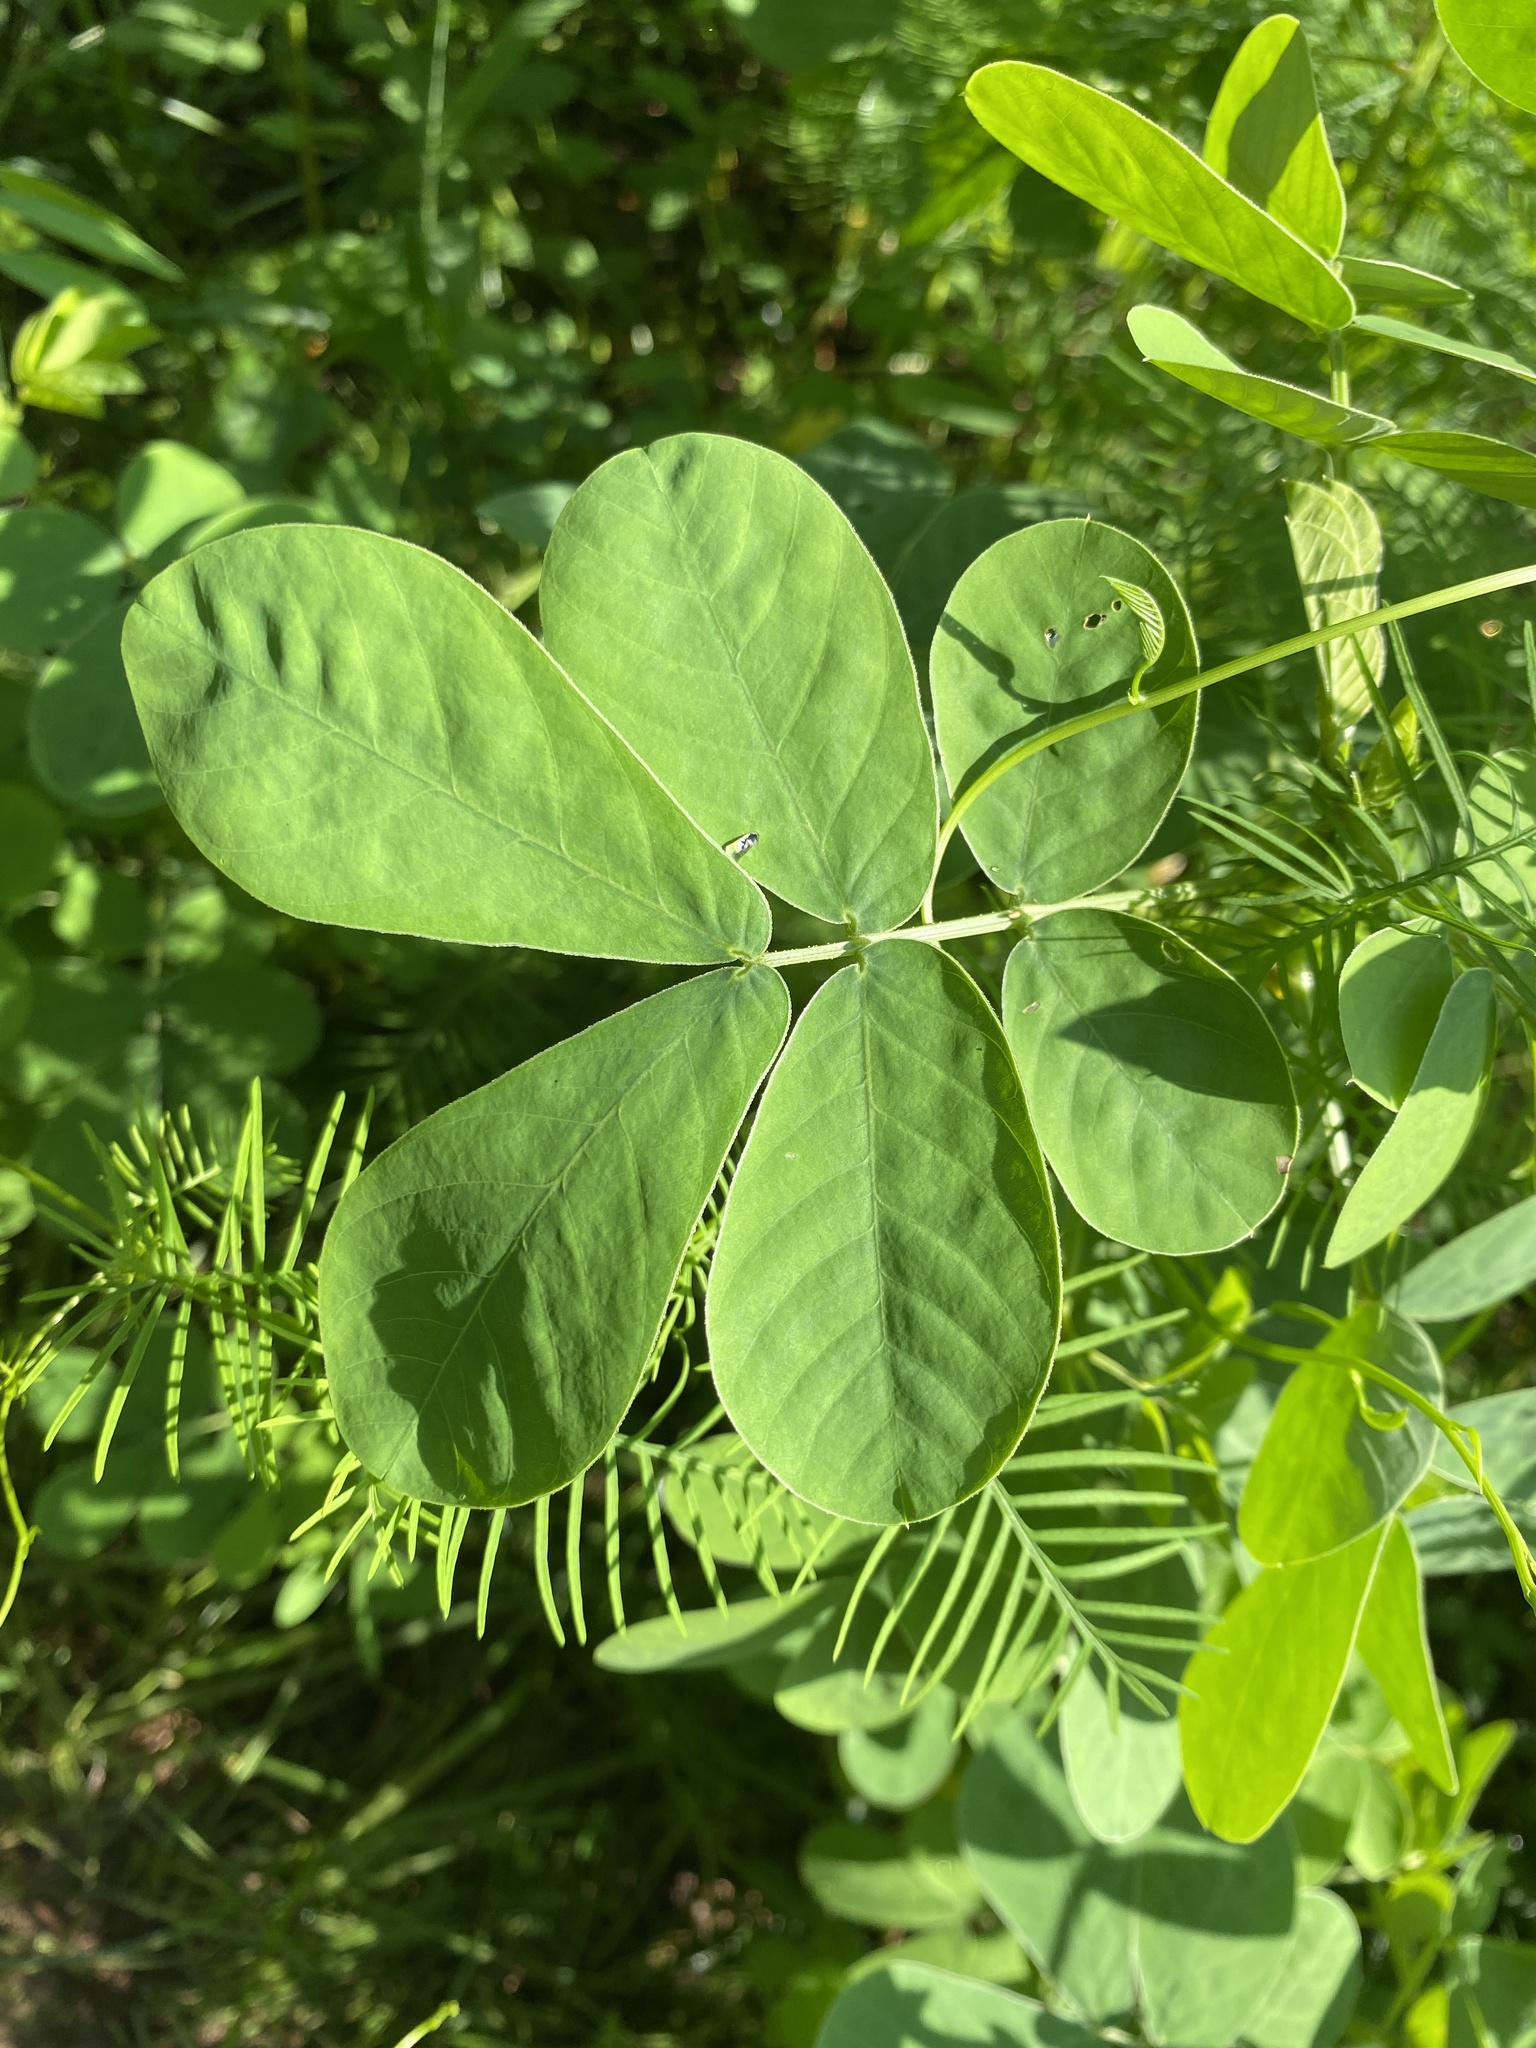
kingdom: Plantae
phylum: Tracheophyta
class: Magnoliopsida
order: Fabales
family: Fabaceae
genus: Senna
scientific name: Senna obtusifolia
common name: Java-bean
